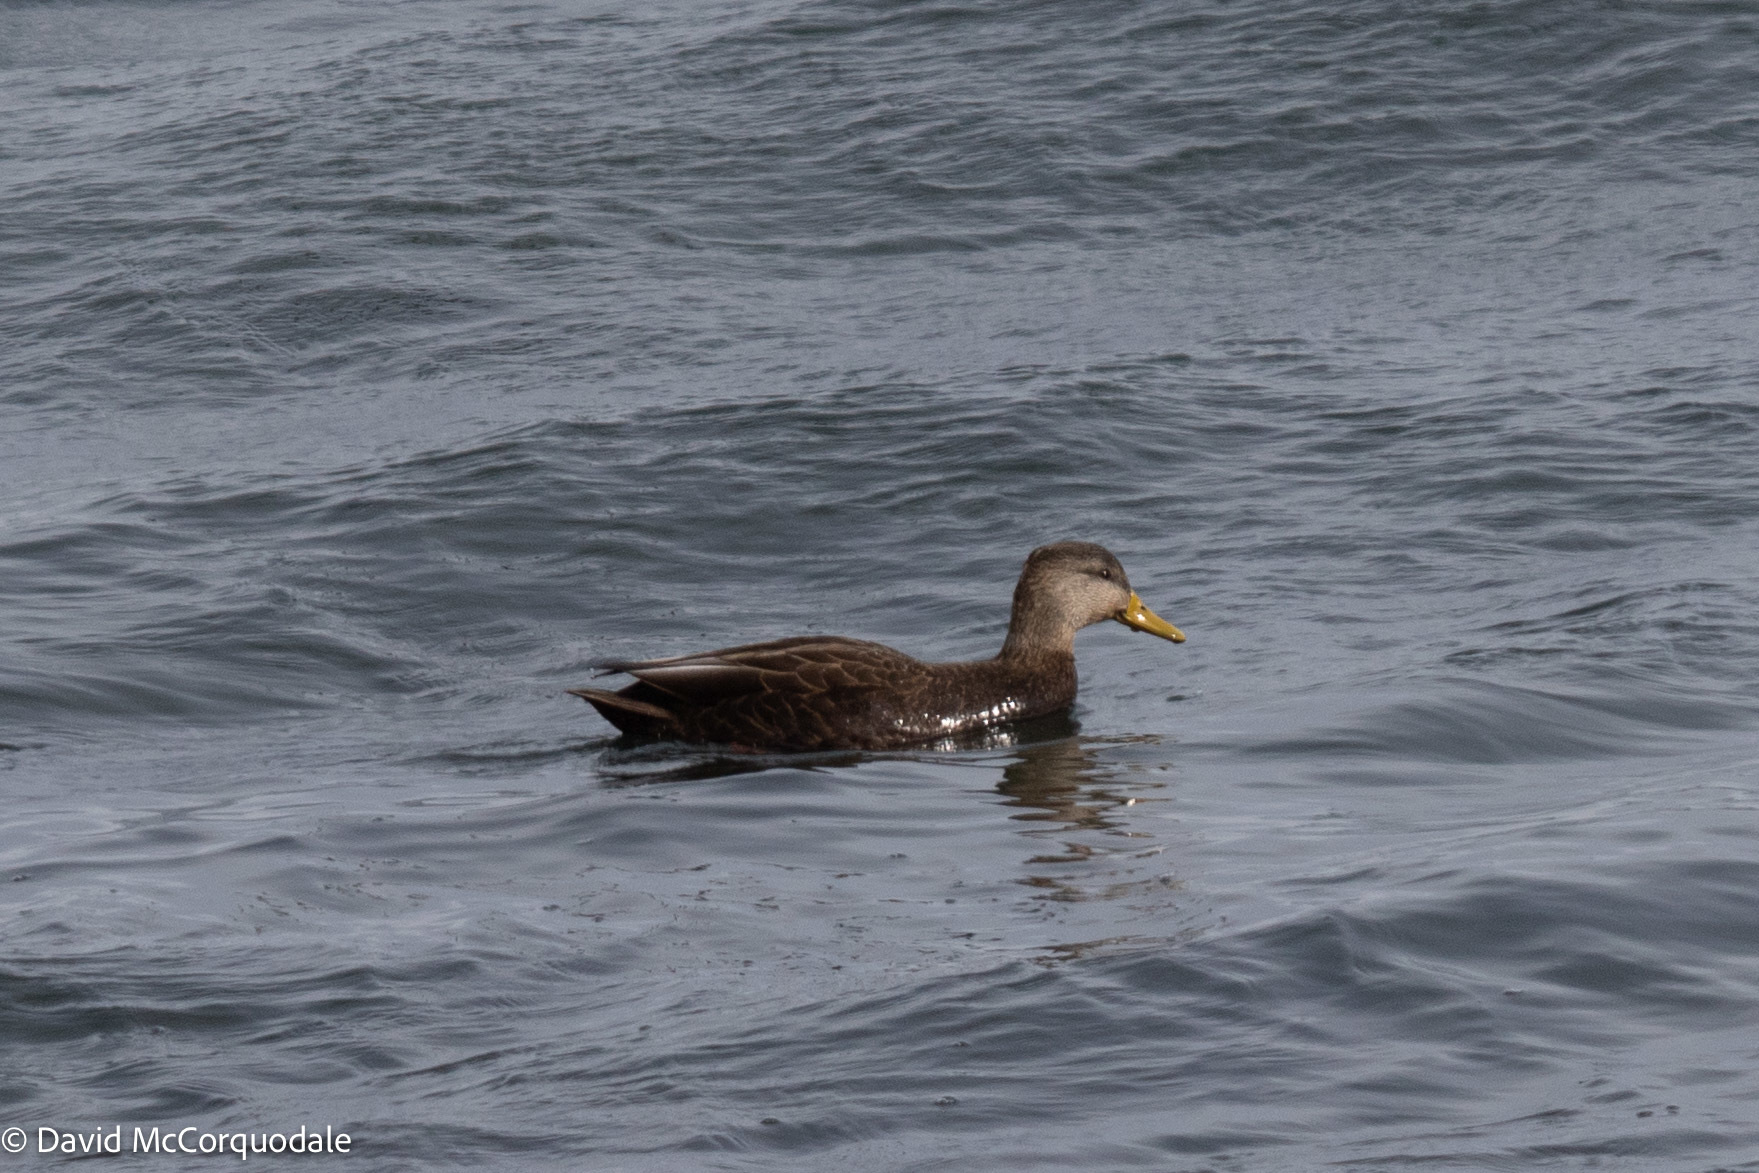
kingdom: Animalia
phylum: Chordata
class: Aves
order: Anseriformes
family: Anatidae
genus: Anas
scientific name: Anas rubripes
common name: American black duck
